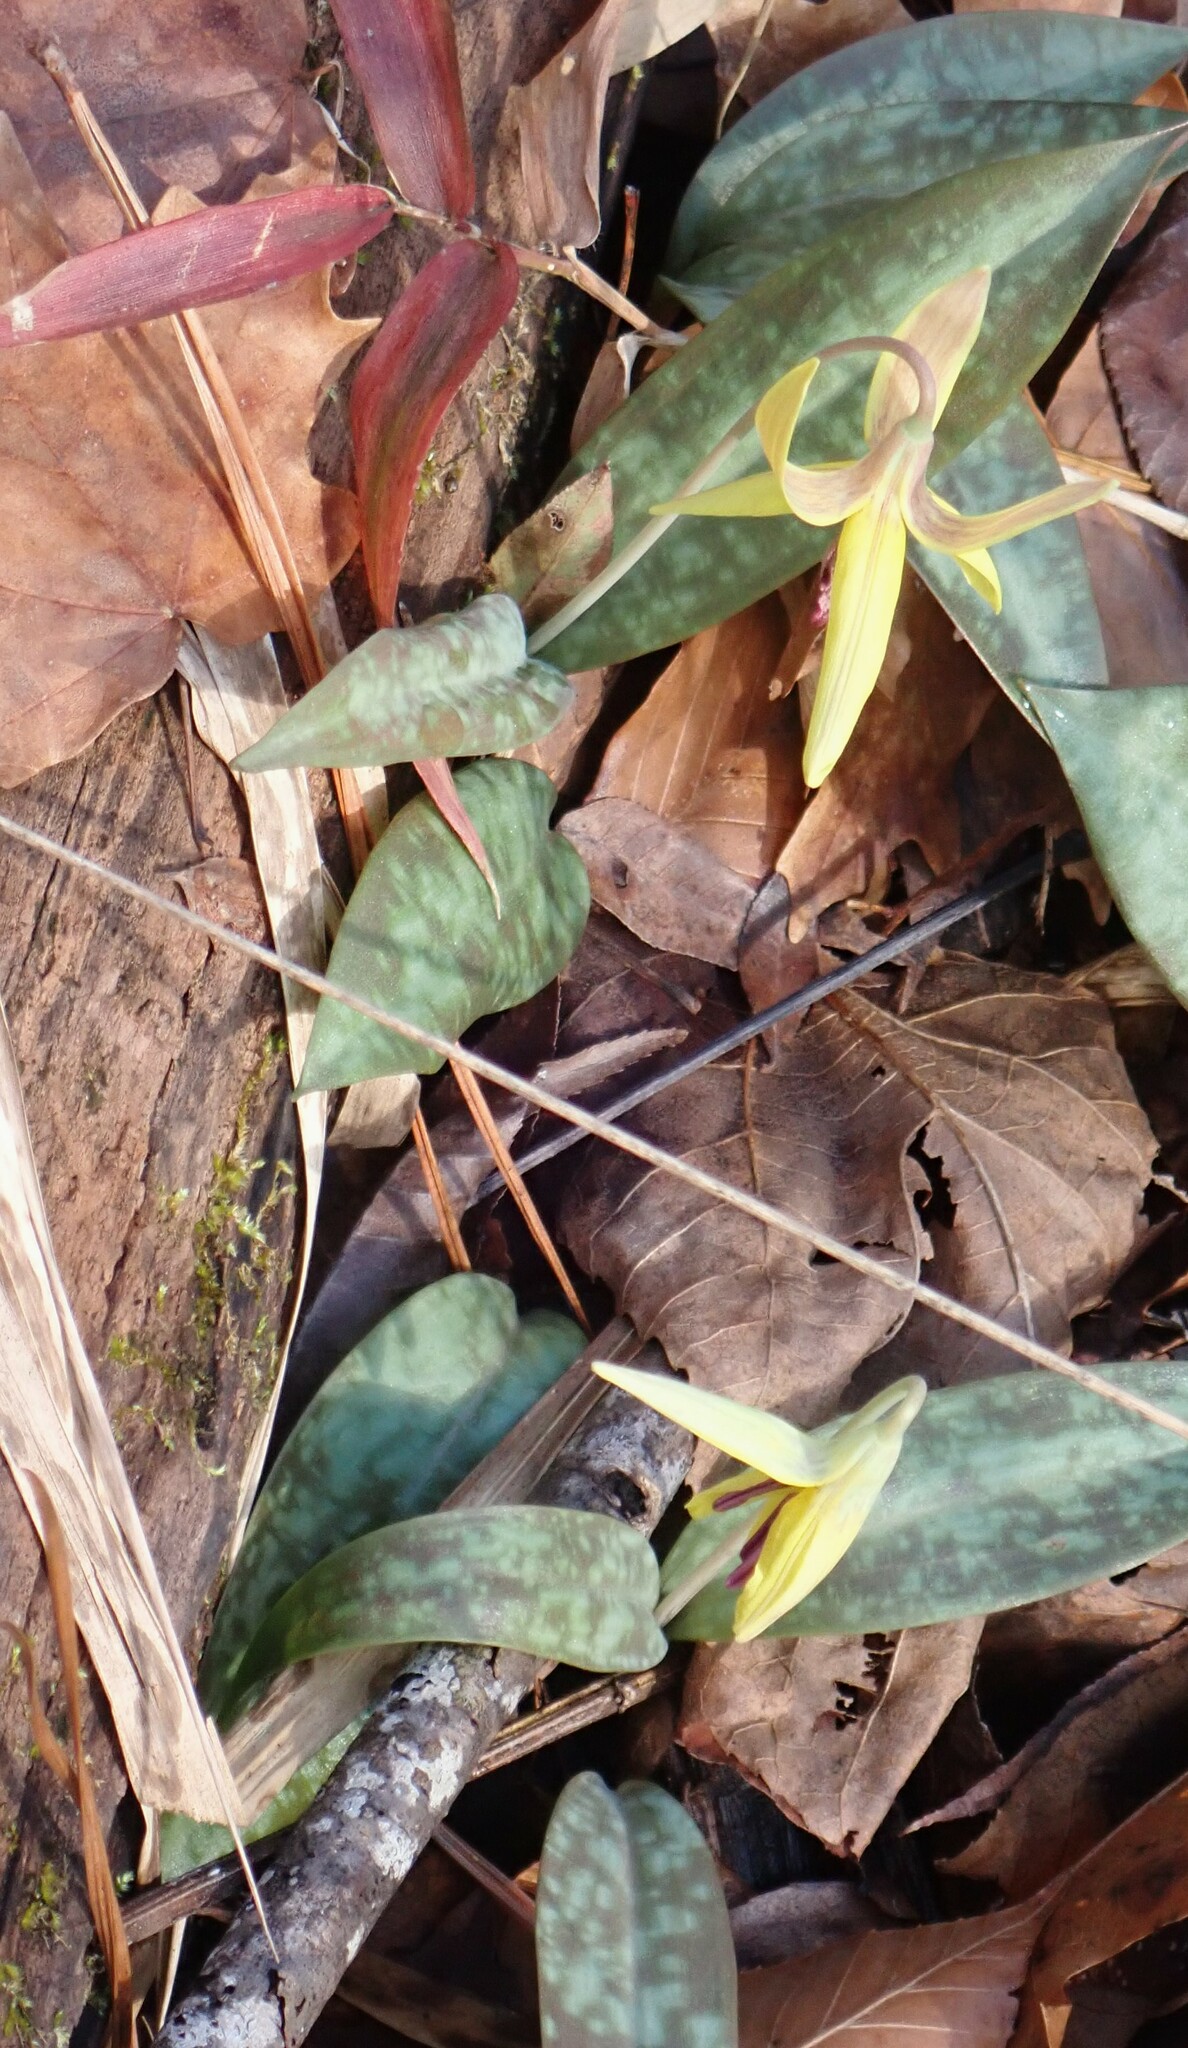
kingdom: Plantae
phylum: Tracheophyta
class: Liliopsida
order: Liliales
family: Liliaceae
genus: Erythronium
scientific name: Erythronium umbilicatum
